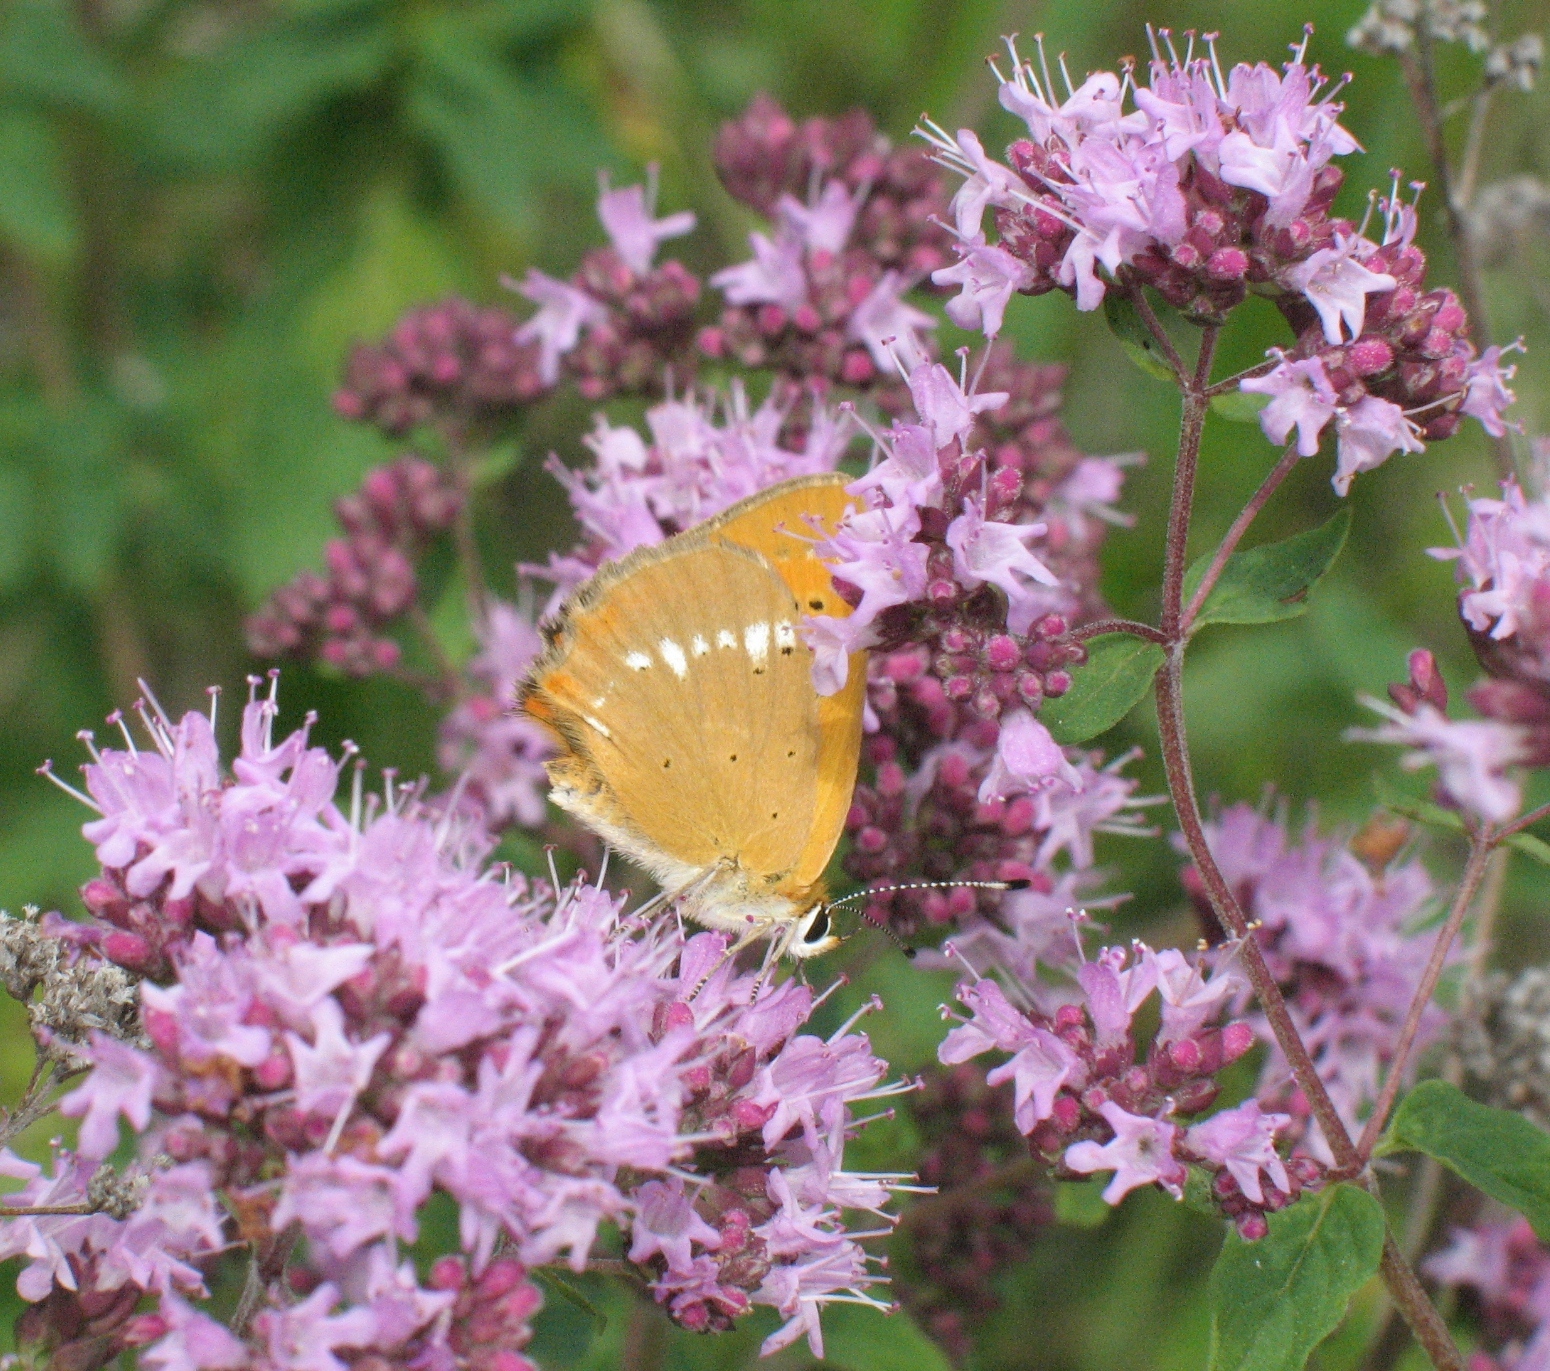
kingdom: Animalia
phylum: Arthropoda
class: Insecta
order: Lepidoptera
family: Lycaenidae
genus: Lycaena
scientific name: Lycaena virgaureae
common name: Scarce copper
